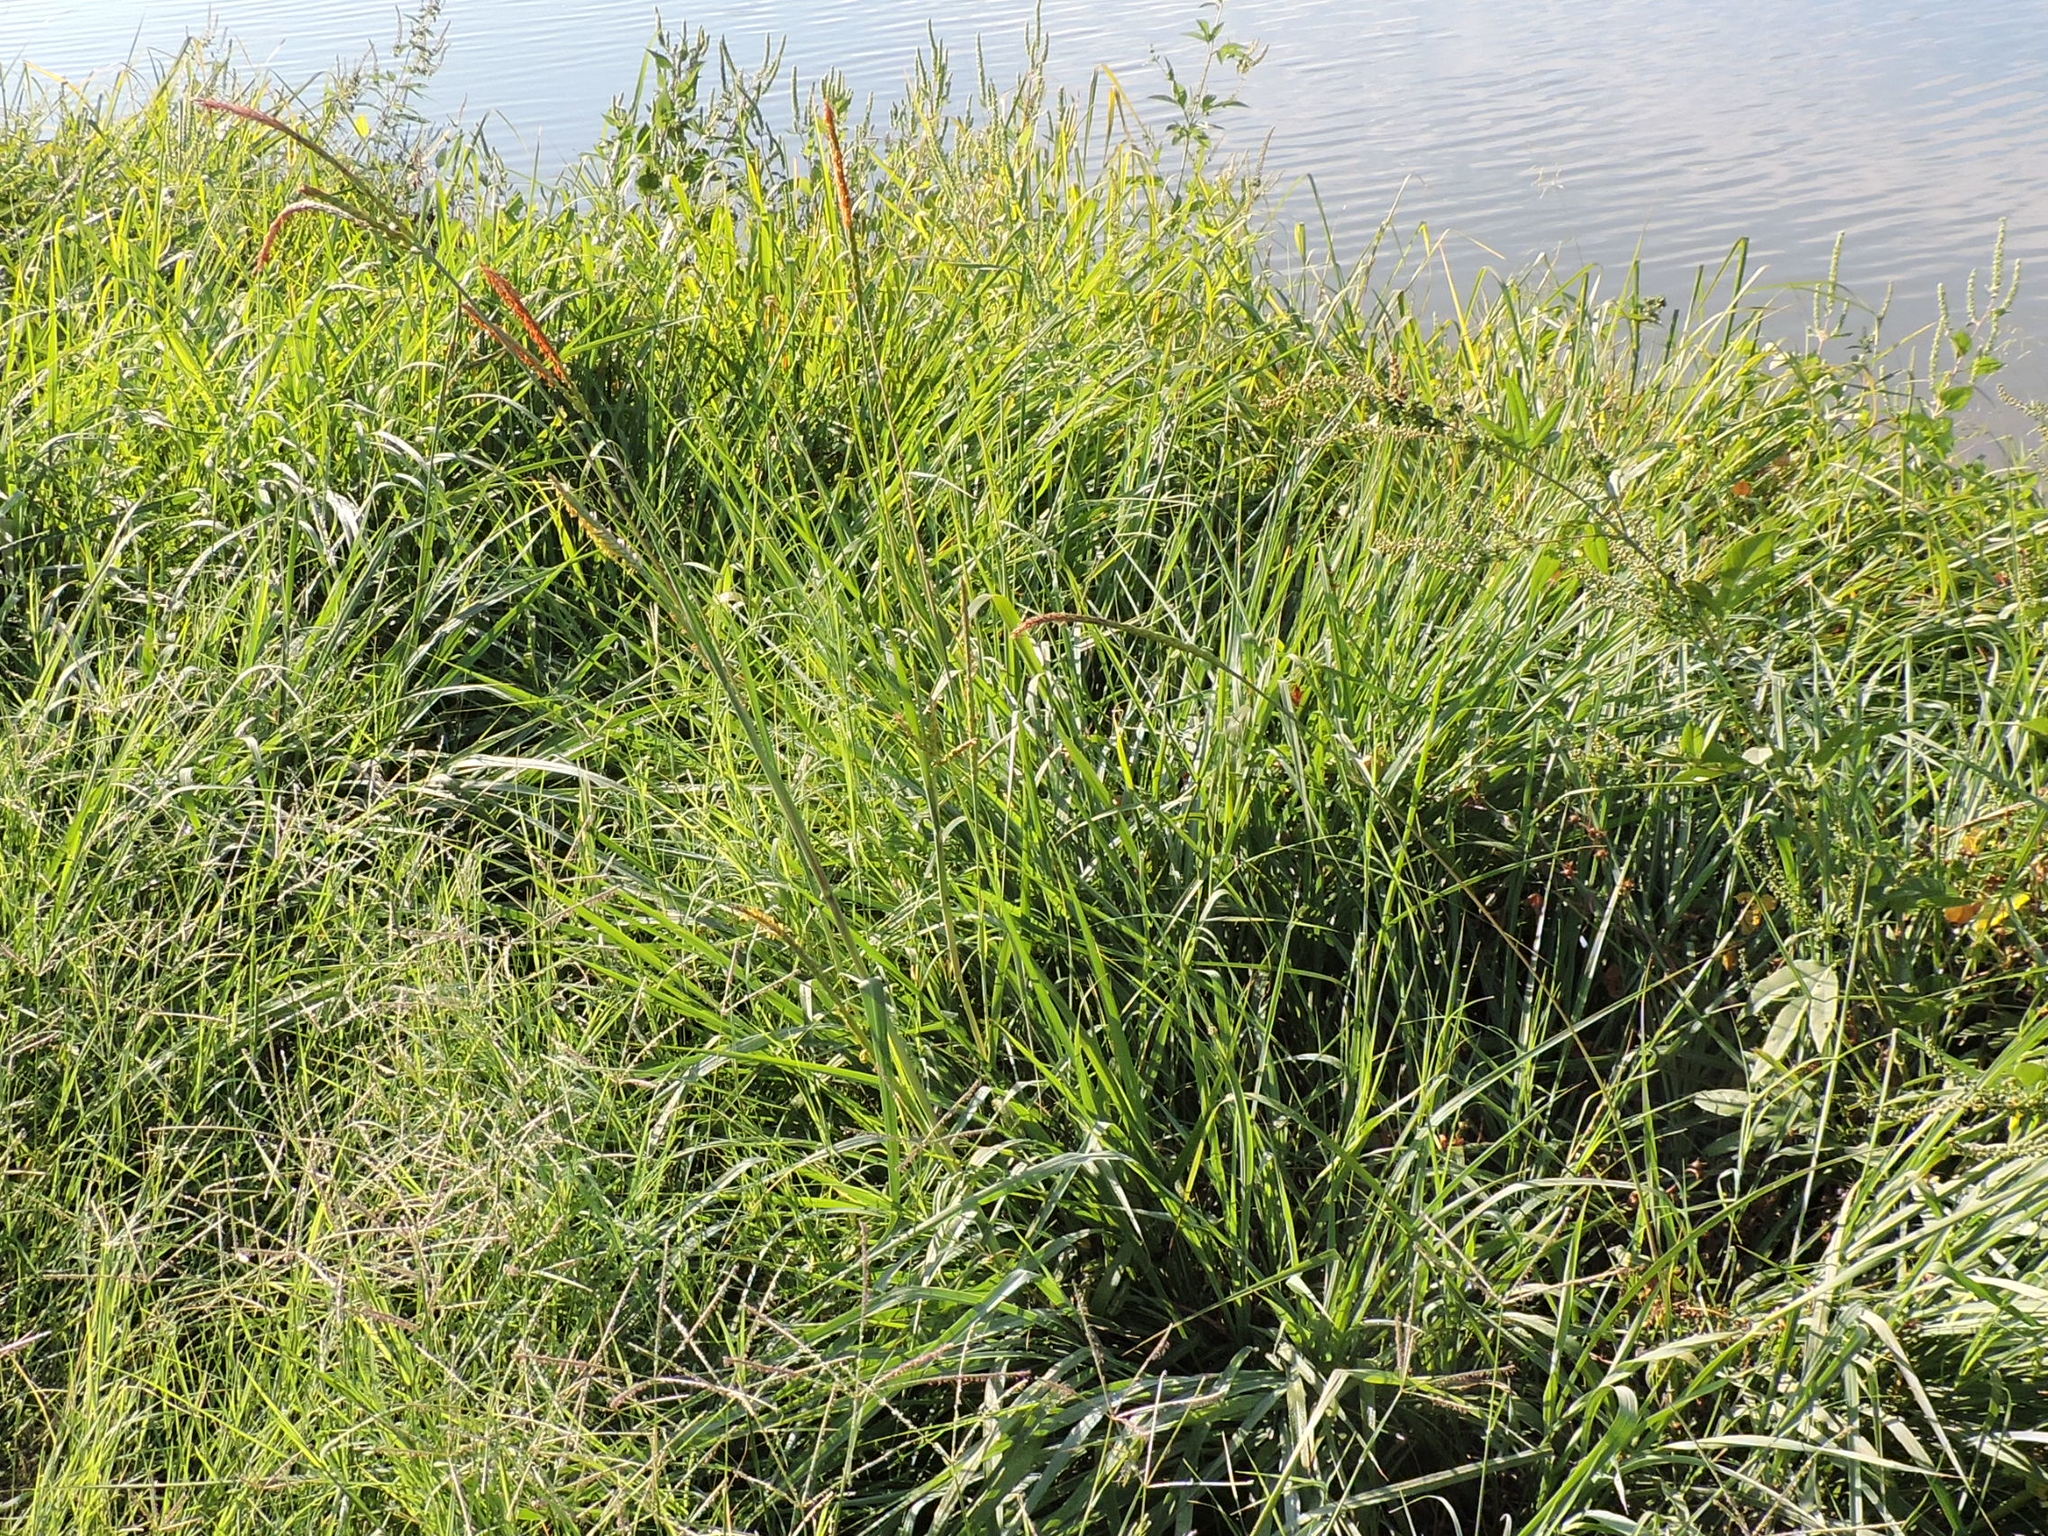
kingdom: Plantae
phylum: Tracheophyta
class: Liliopsida
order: Poales
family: Poaceae
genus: Tripsacum
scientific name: Tripsacum dactyloides
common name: Buffalo-grass
